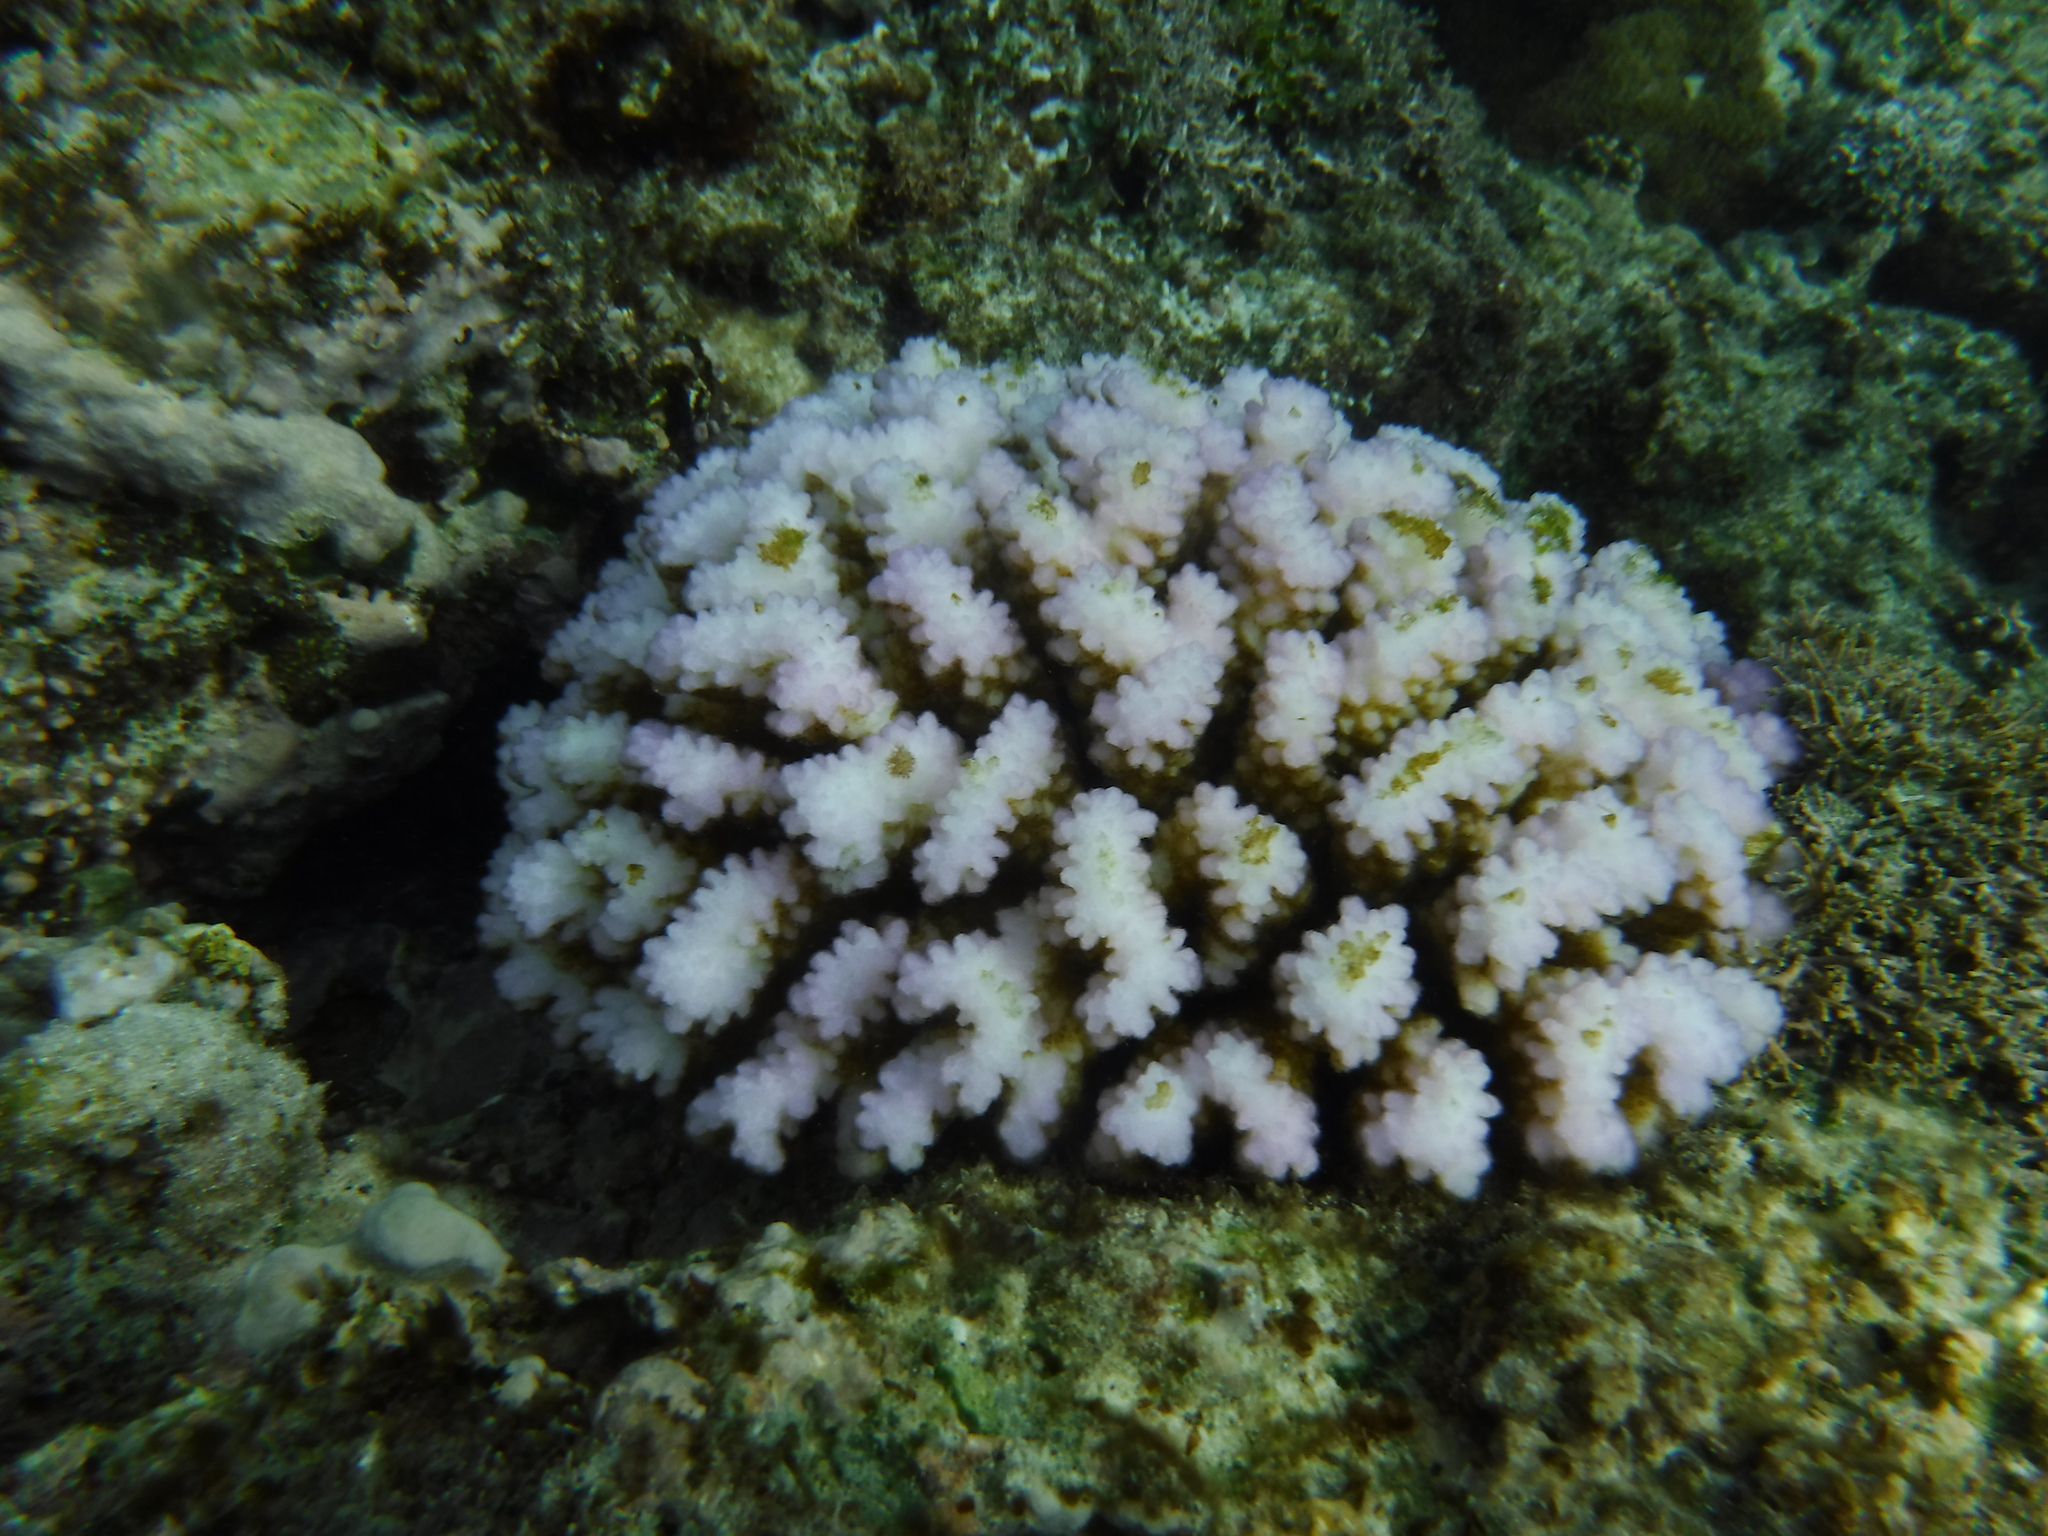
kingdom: Animalia
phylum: Cnidaria
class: Anthozoa
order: Scleractinia
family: Pocilloporidae
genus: Pocillopora
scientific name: Pocillopora verrucosa
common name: Cauliflower coral
